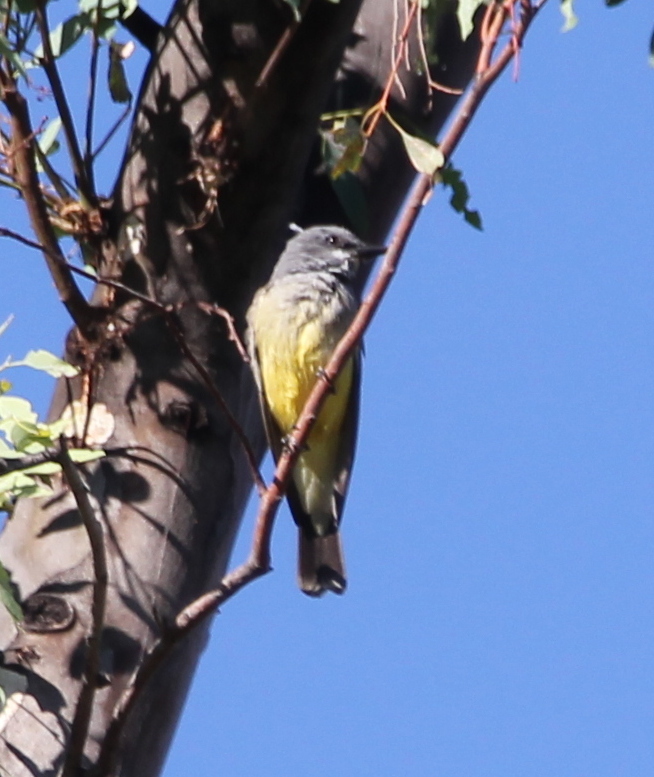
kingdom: Animalia
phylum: Chordata
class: Aves
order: Passeriformes
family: Tyrannidae
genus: Tyrannus
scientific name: Tyrannus vociferans
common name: Cassin's kingbird
